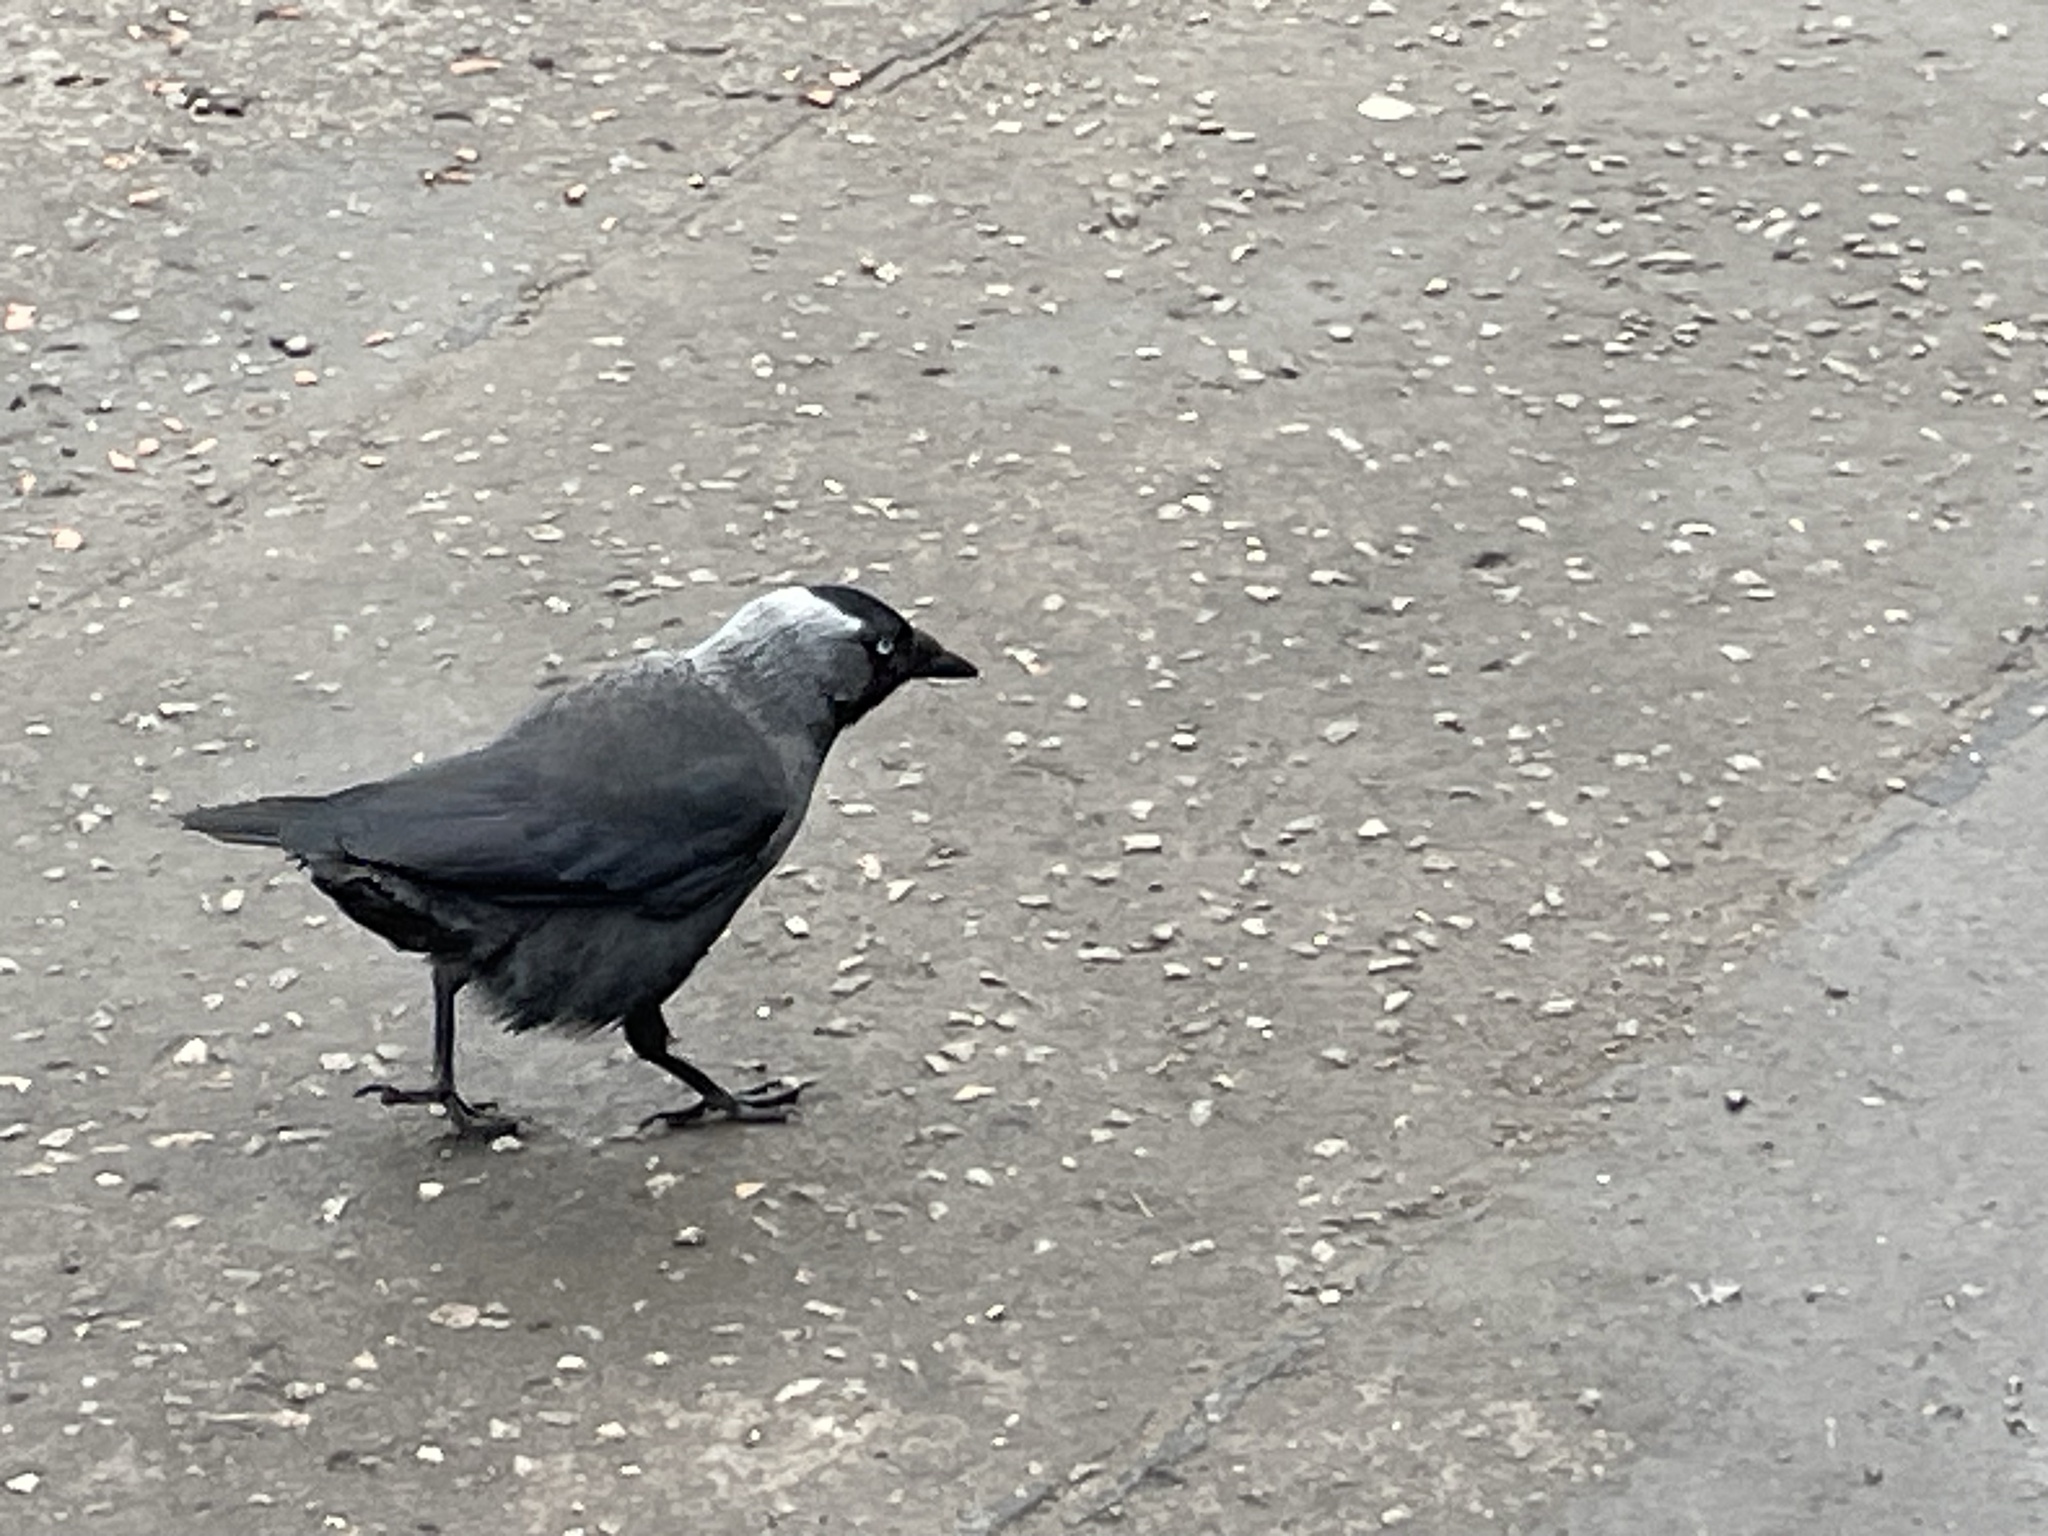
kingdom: Animalia
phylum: Chordata
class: Aves
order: Passeriformes
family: Corvidae
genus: Coloeus
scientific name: Coloeus monedula
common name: Western jackdaw
